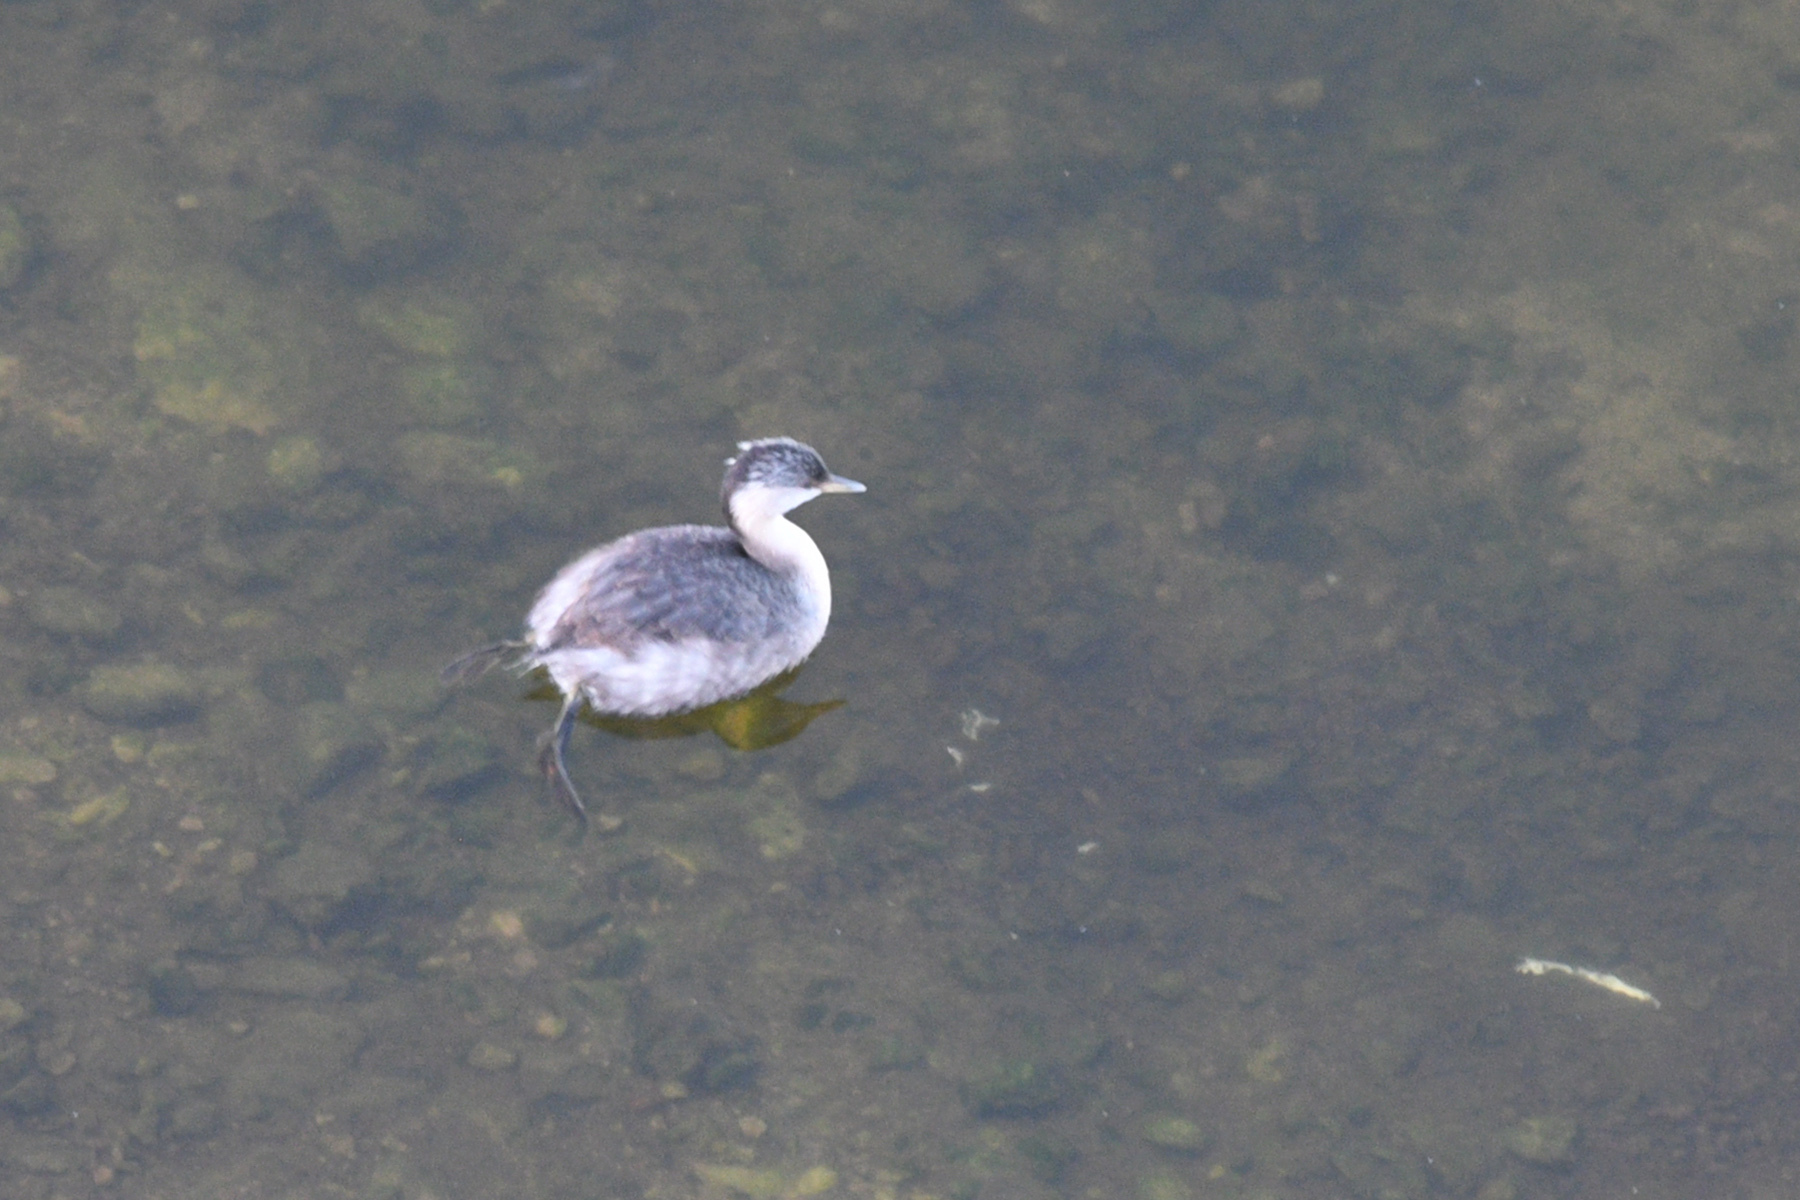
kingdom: Animalia
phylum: Chordata
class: Aves
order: Podicipediformes
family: Podicipedidae
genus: Poliocephalus
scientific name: Poliocephalus poliocephalus
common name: Hoary-headed grebe
